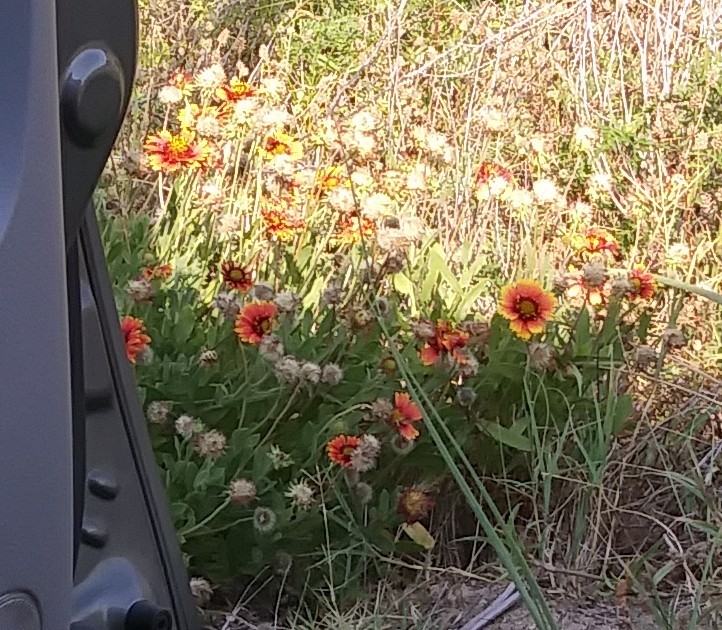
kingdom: Plantae
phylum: Tracheophyta
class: Magnoliopsida
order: Asterales
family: Asteraceae
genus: Gaillardia
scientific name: Gaillardia pulchella
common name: Firewheel
